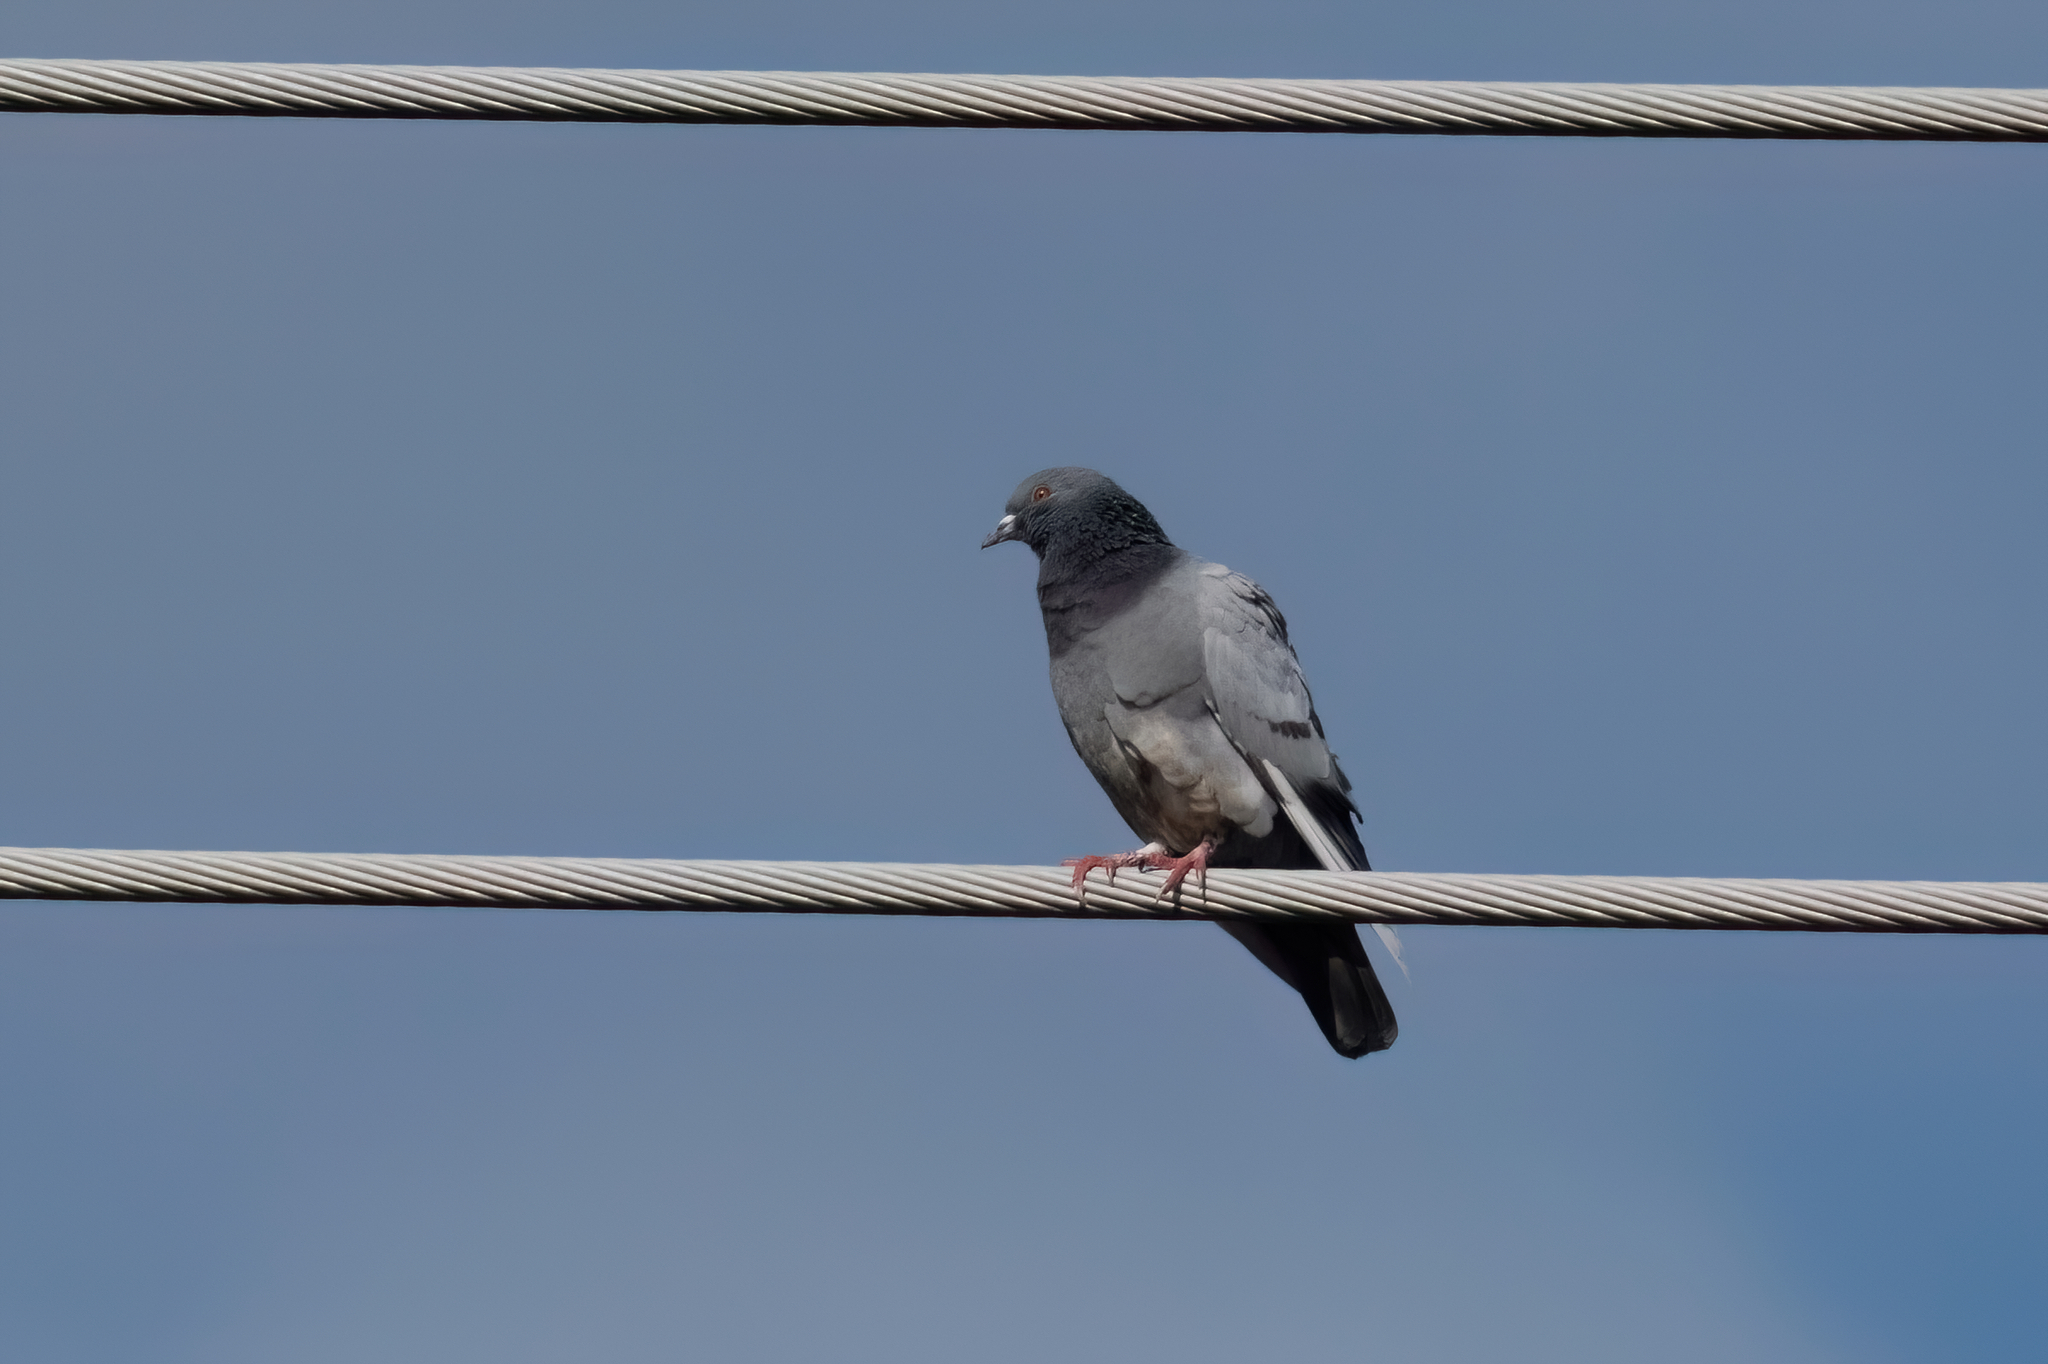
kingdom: Animalia
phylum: Chordata
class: Aves
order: Columbiformes
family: Columbidae
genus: Columba
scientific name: Columba livia
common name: Rock pigeon
